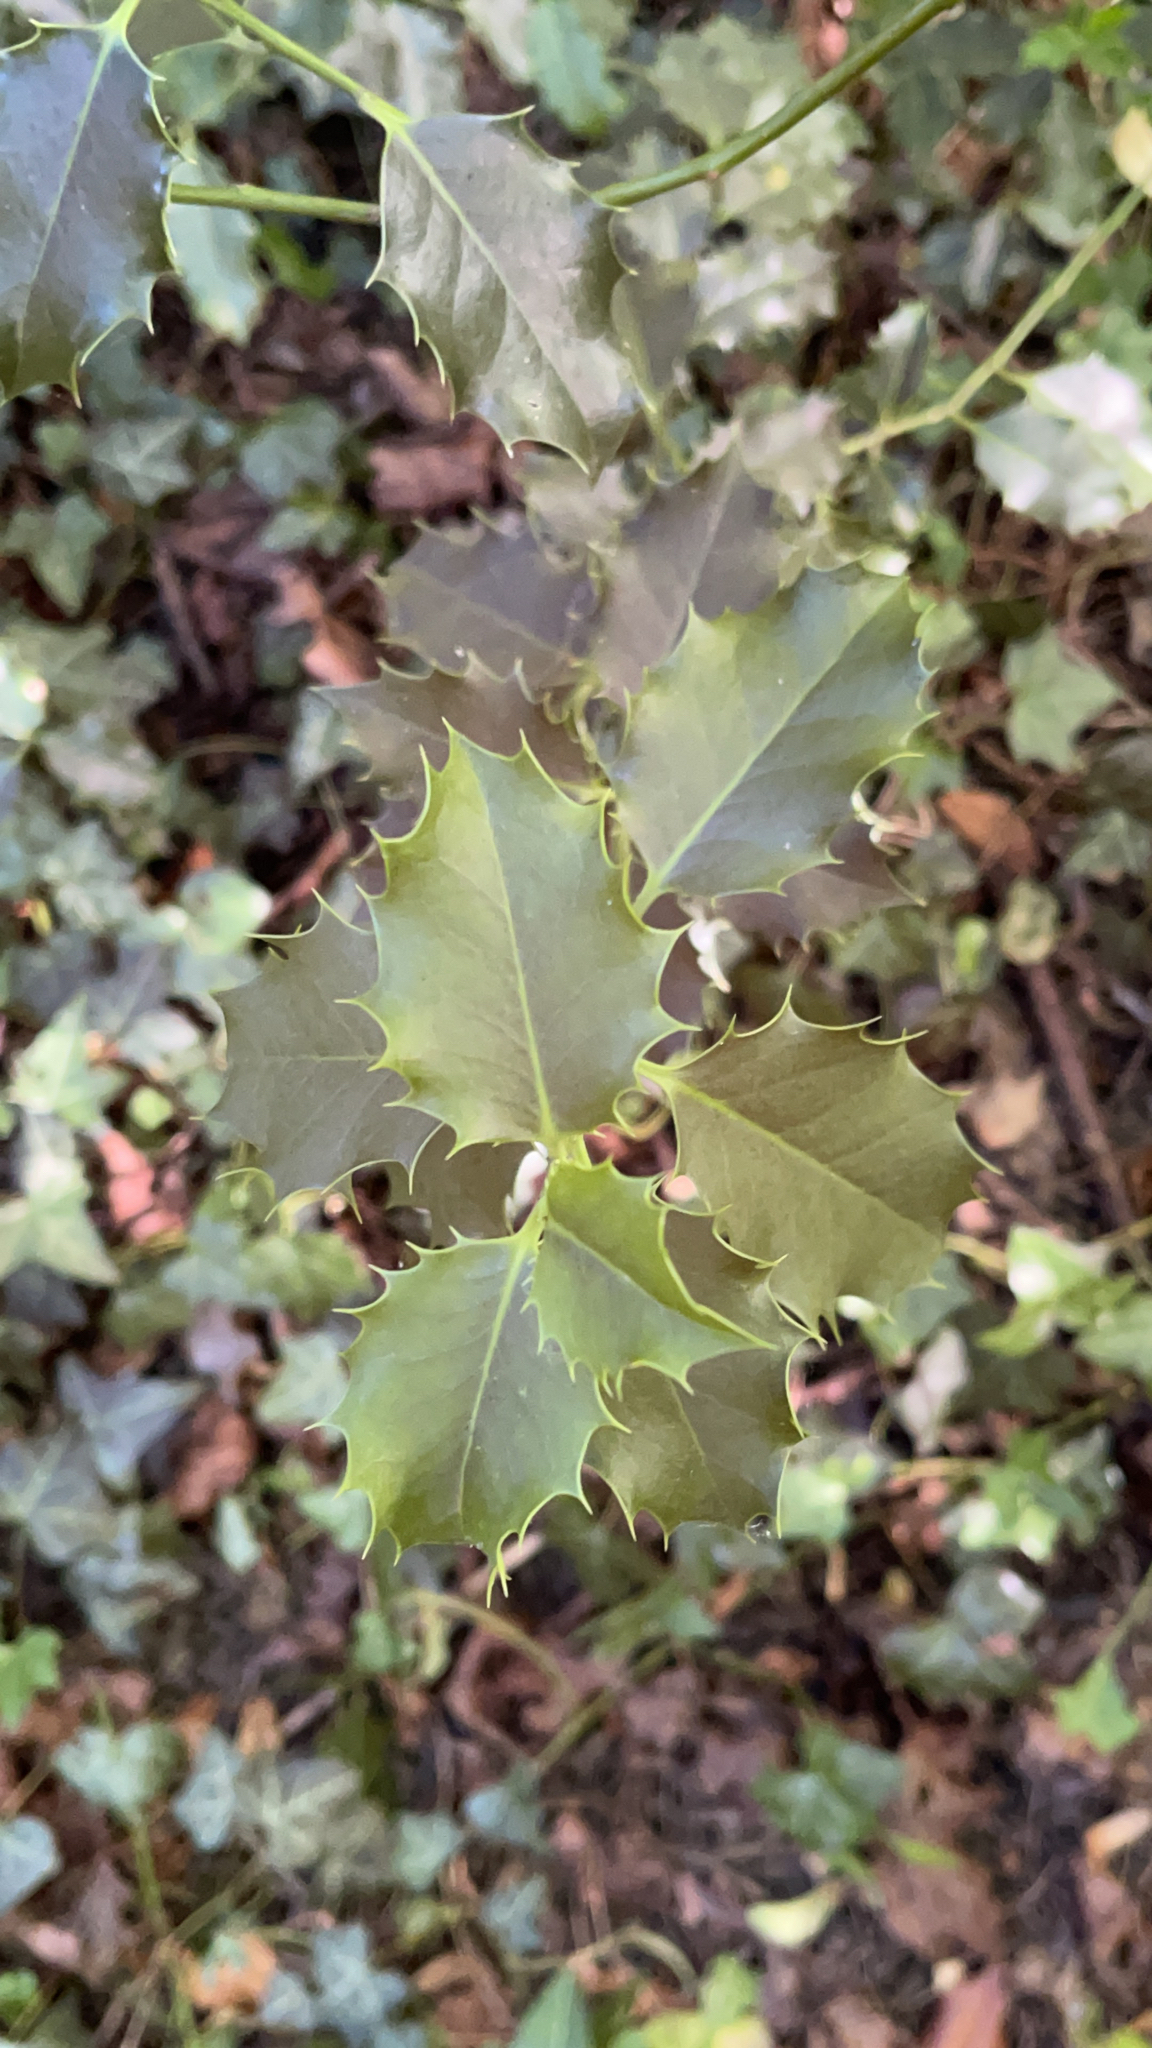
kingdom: Plantae
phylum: Tracheophyta
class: Magnoliopsida
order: Aquifoliales
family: Aquifoliaceae
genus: Ilex
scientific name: Ilex aquifolium
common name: English holly
